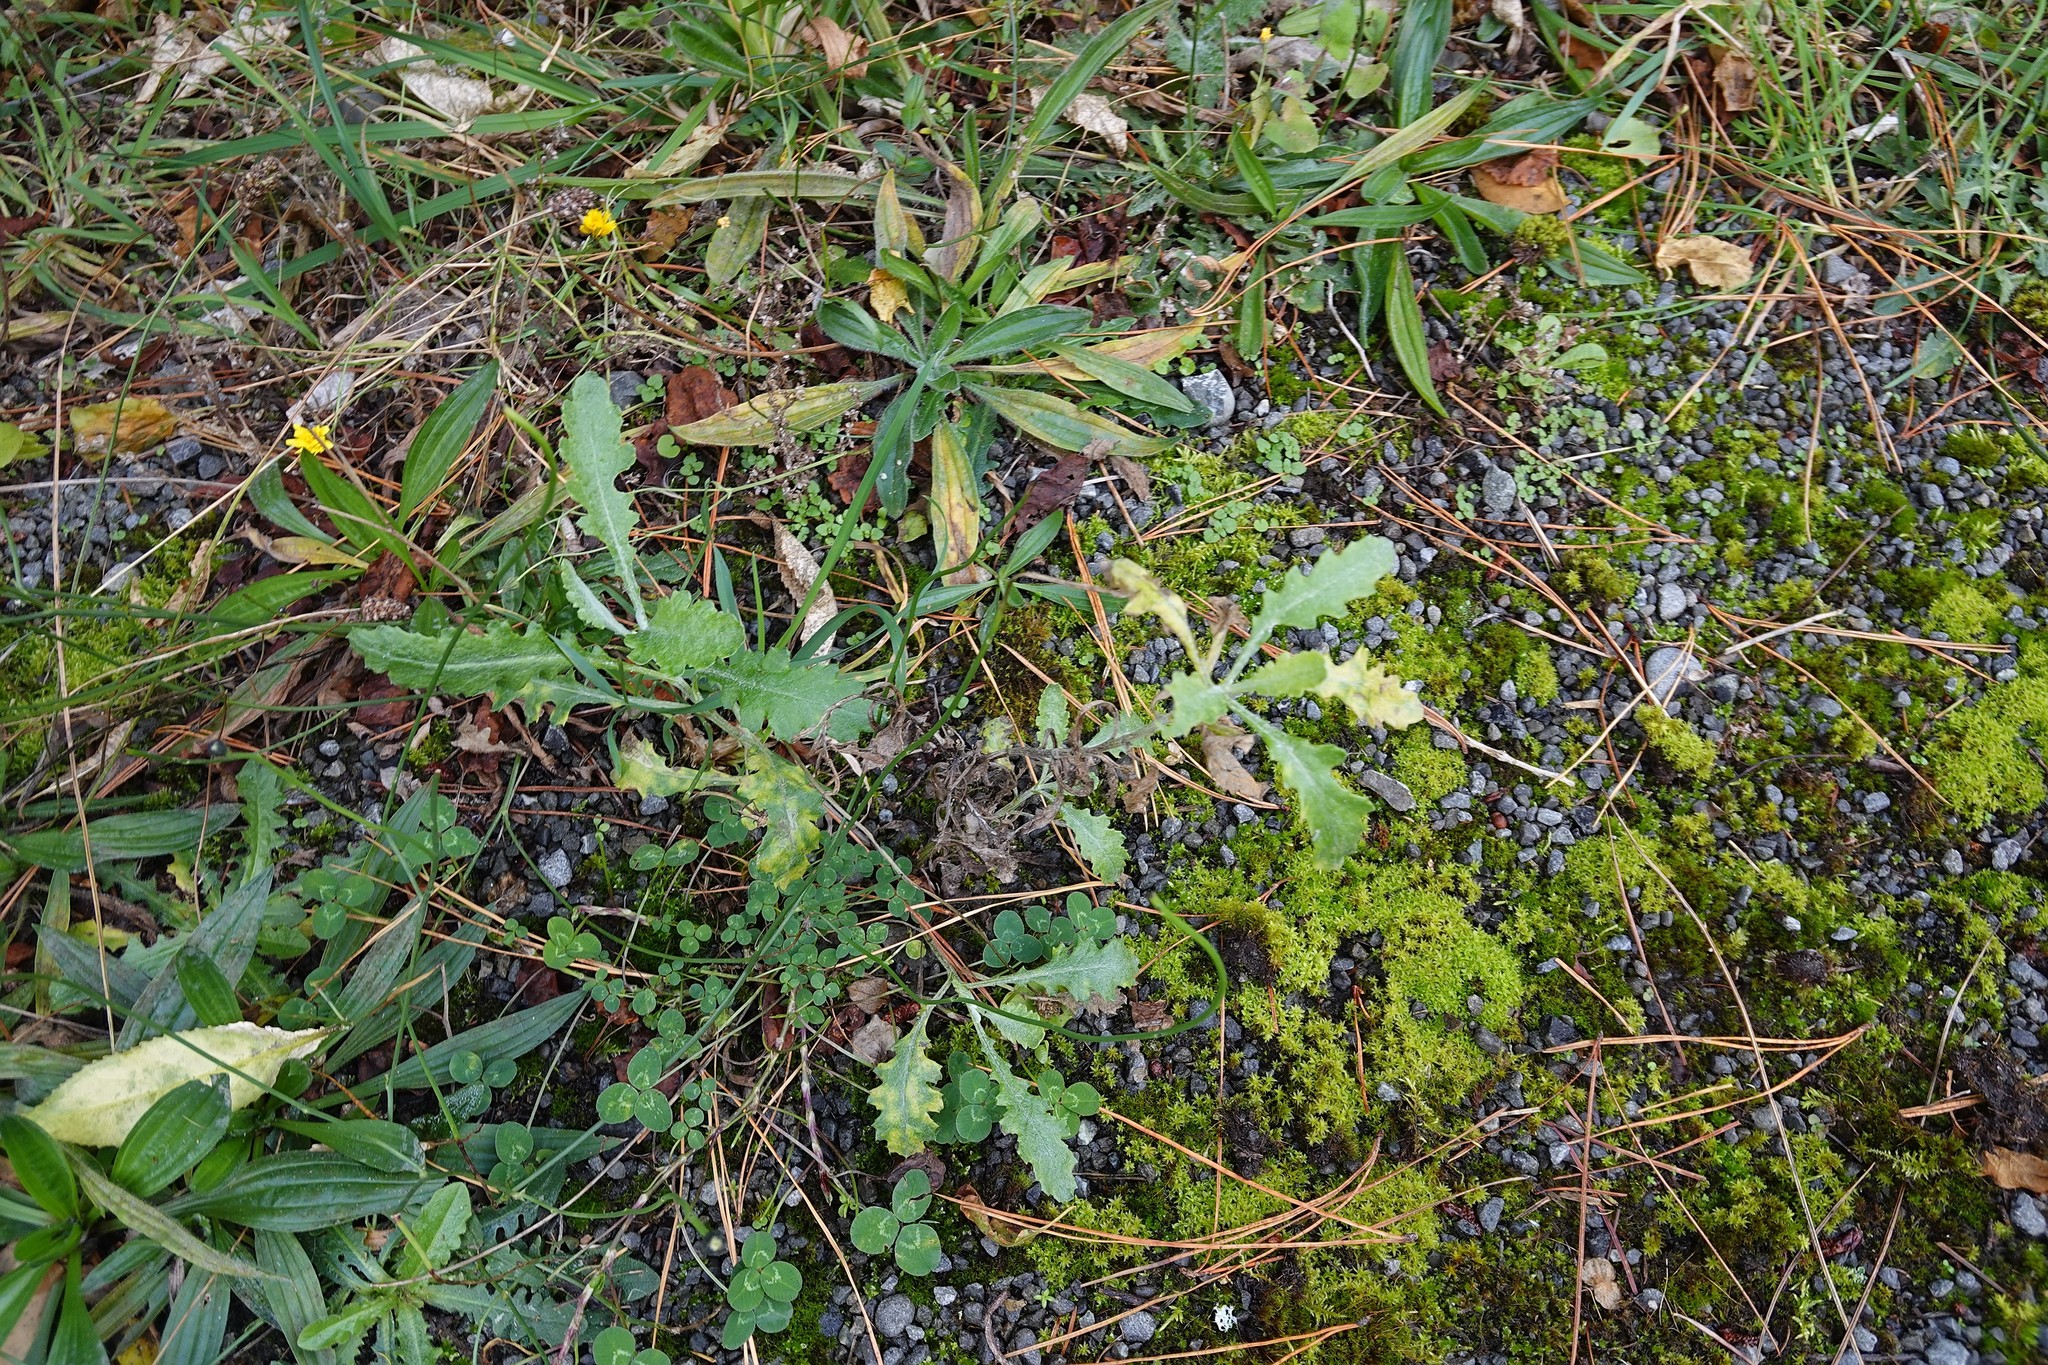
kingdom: Plantae
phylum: Tracheophyta
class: Magnoliopsida
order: Asterales
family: Asteraceae
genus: Senecio
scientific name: Senecio glomeratus
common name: Cutleaf burnweed
